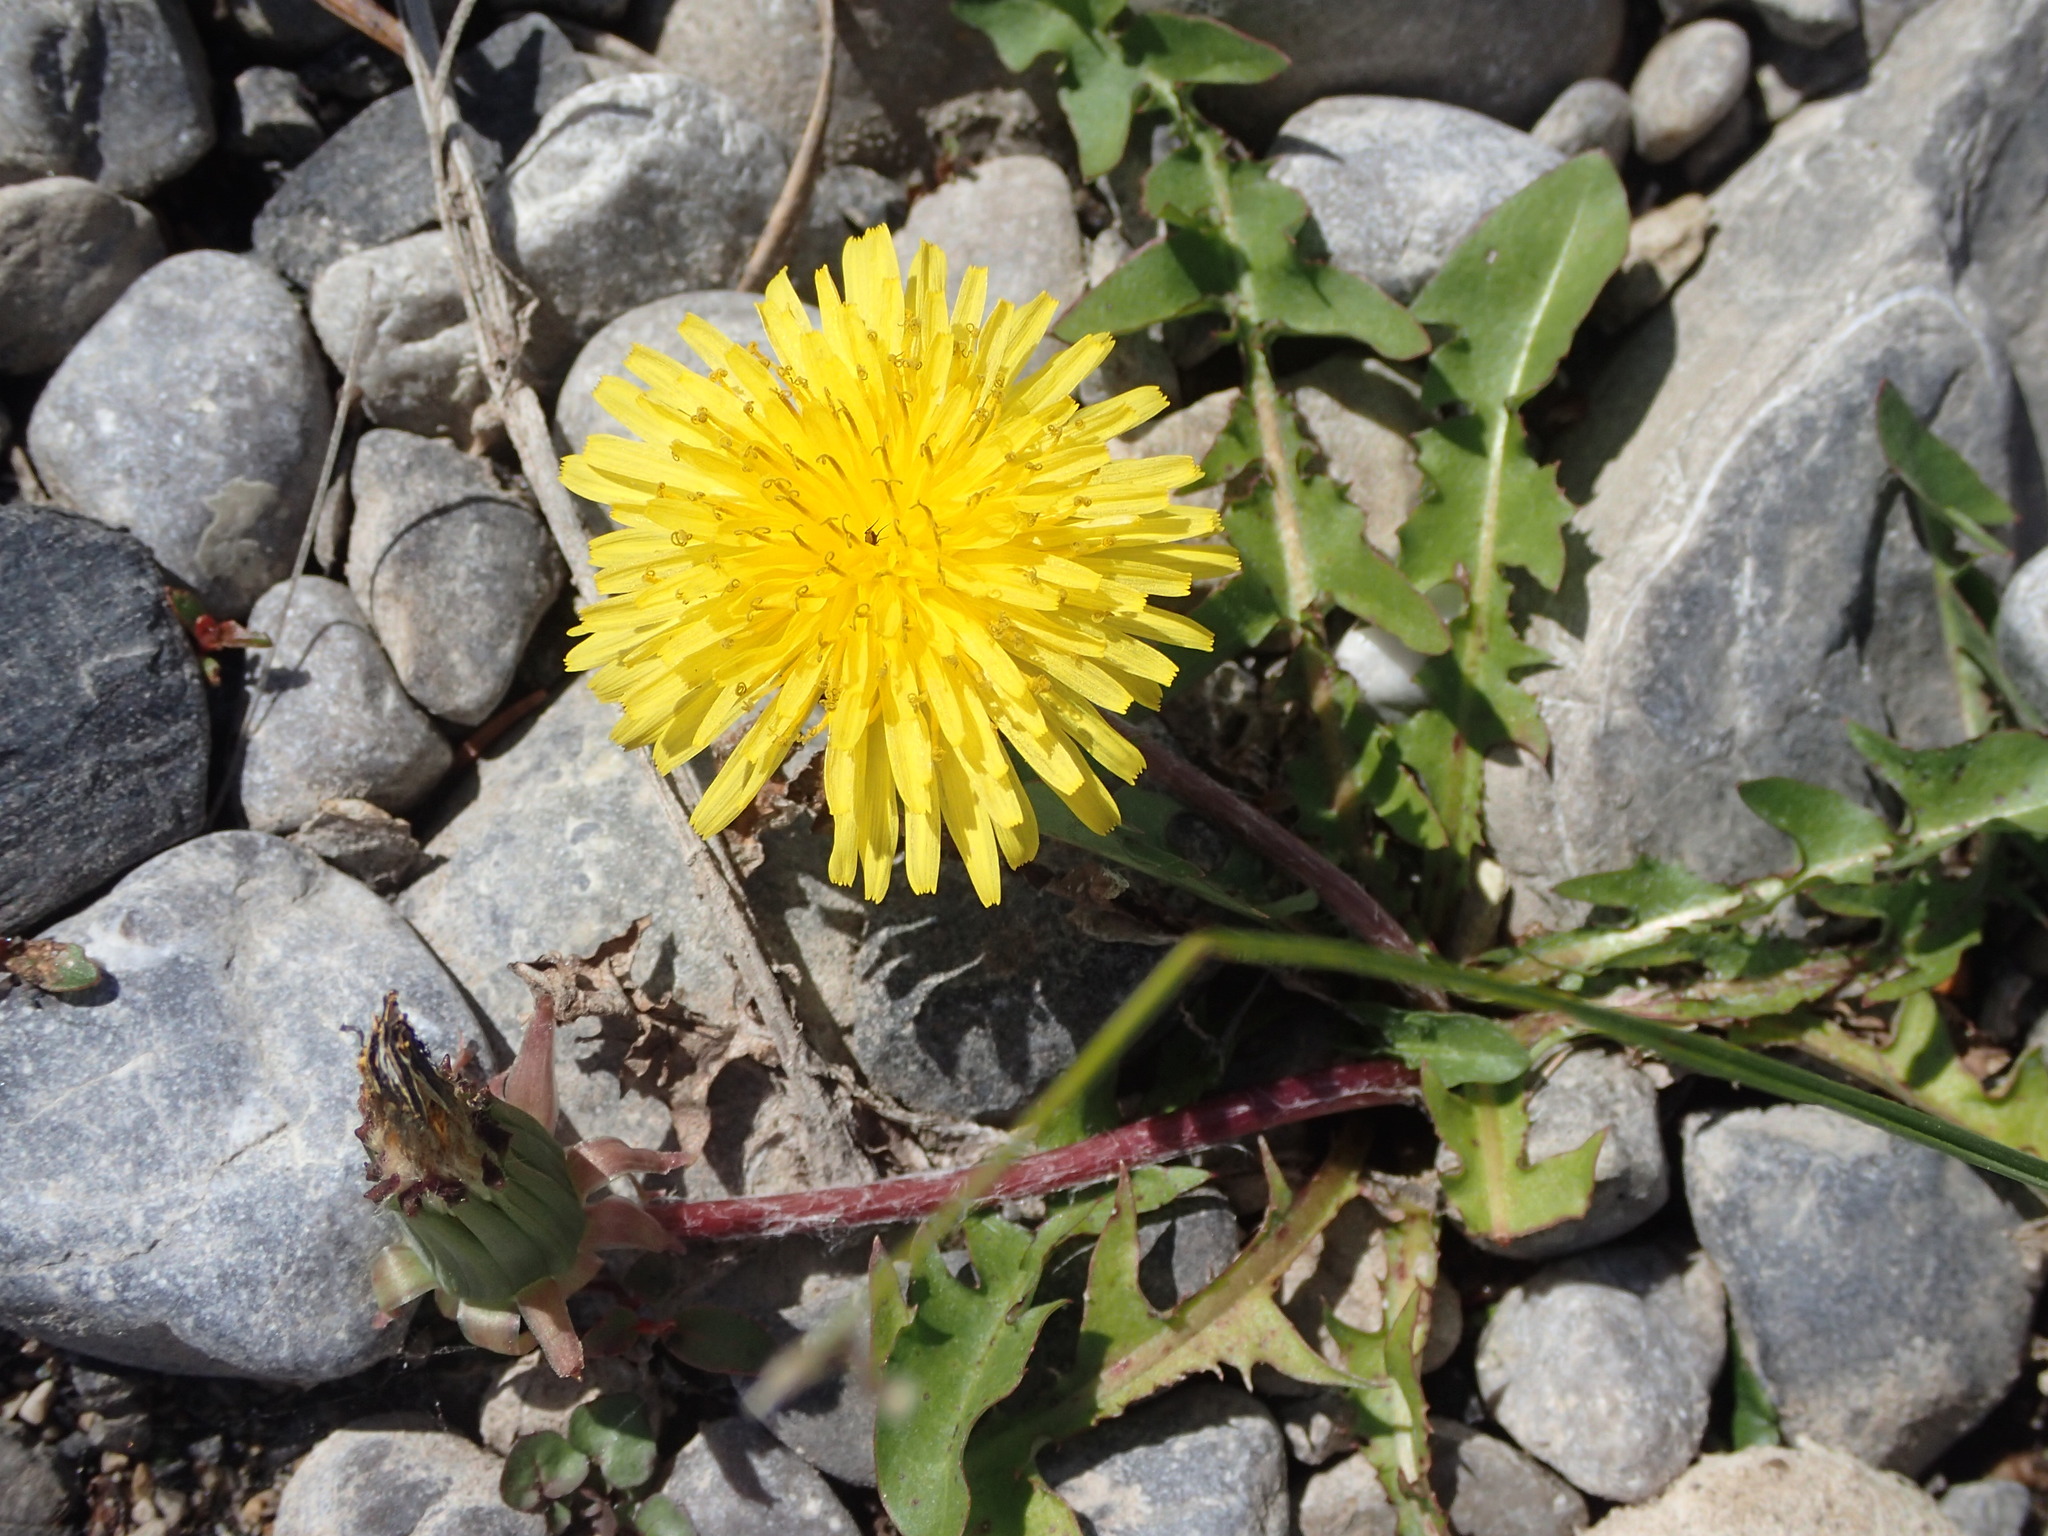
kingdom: Plantae
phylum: Tracheophyta
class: Magnoliopsida
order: Asterales
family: Asteraceae
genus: Taraxacum
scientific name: Taraxacum officinale
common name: Common dandelion
